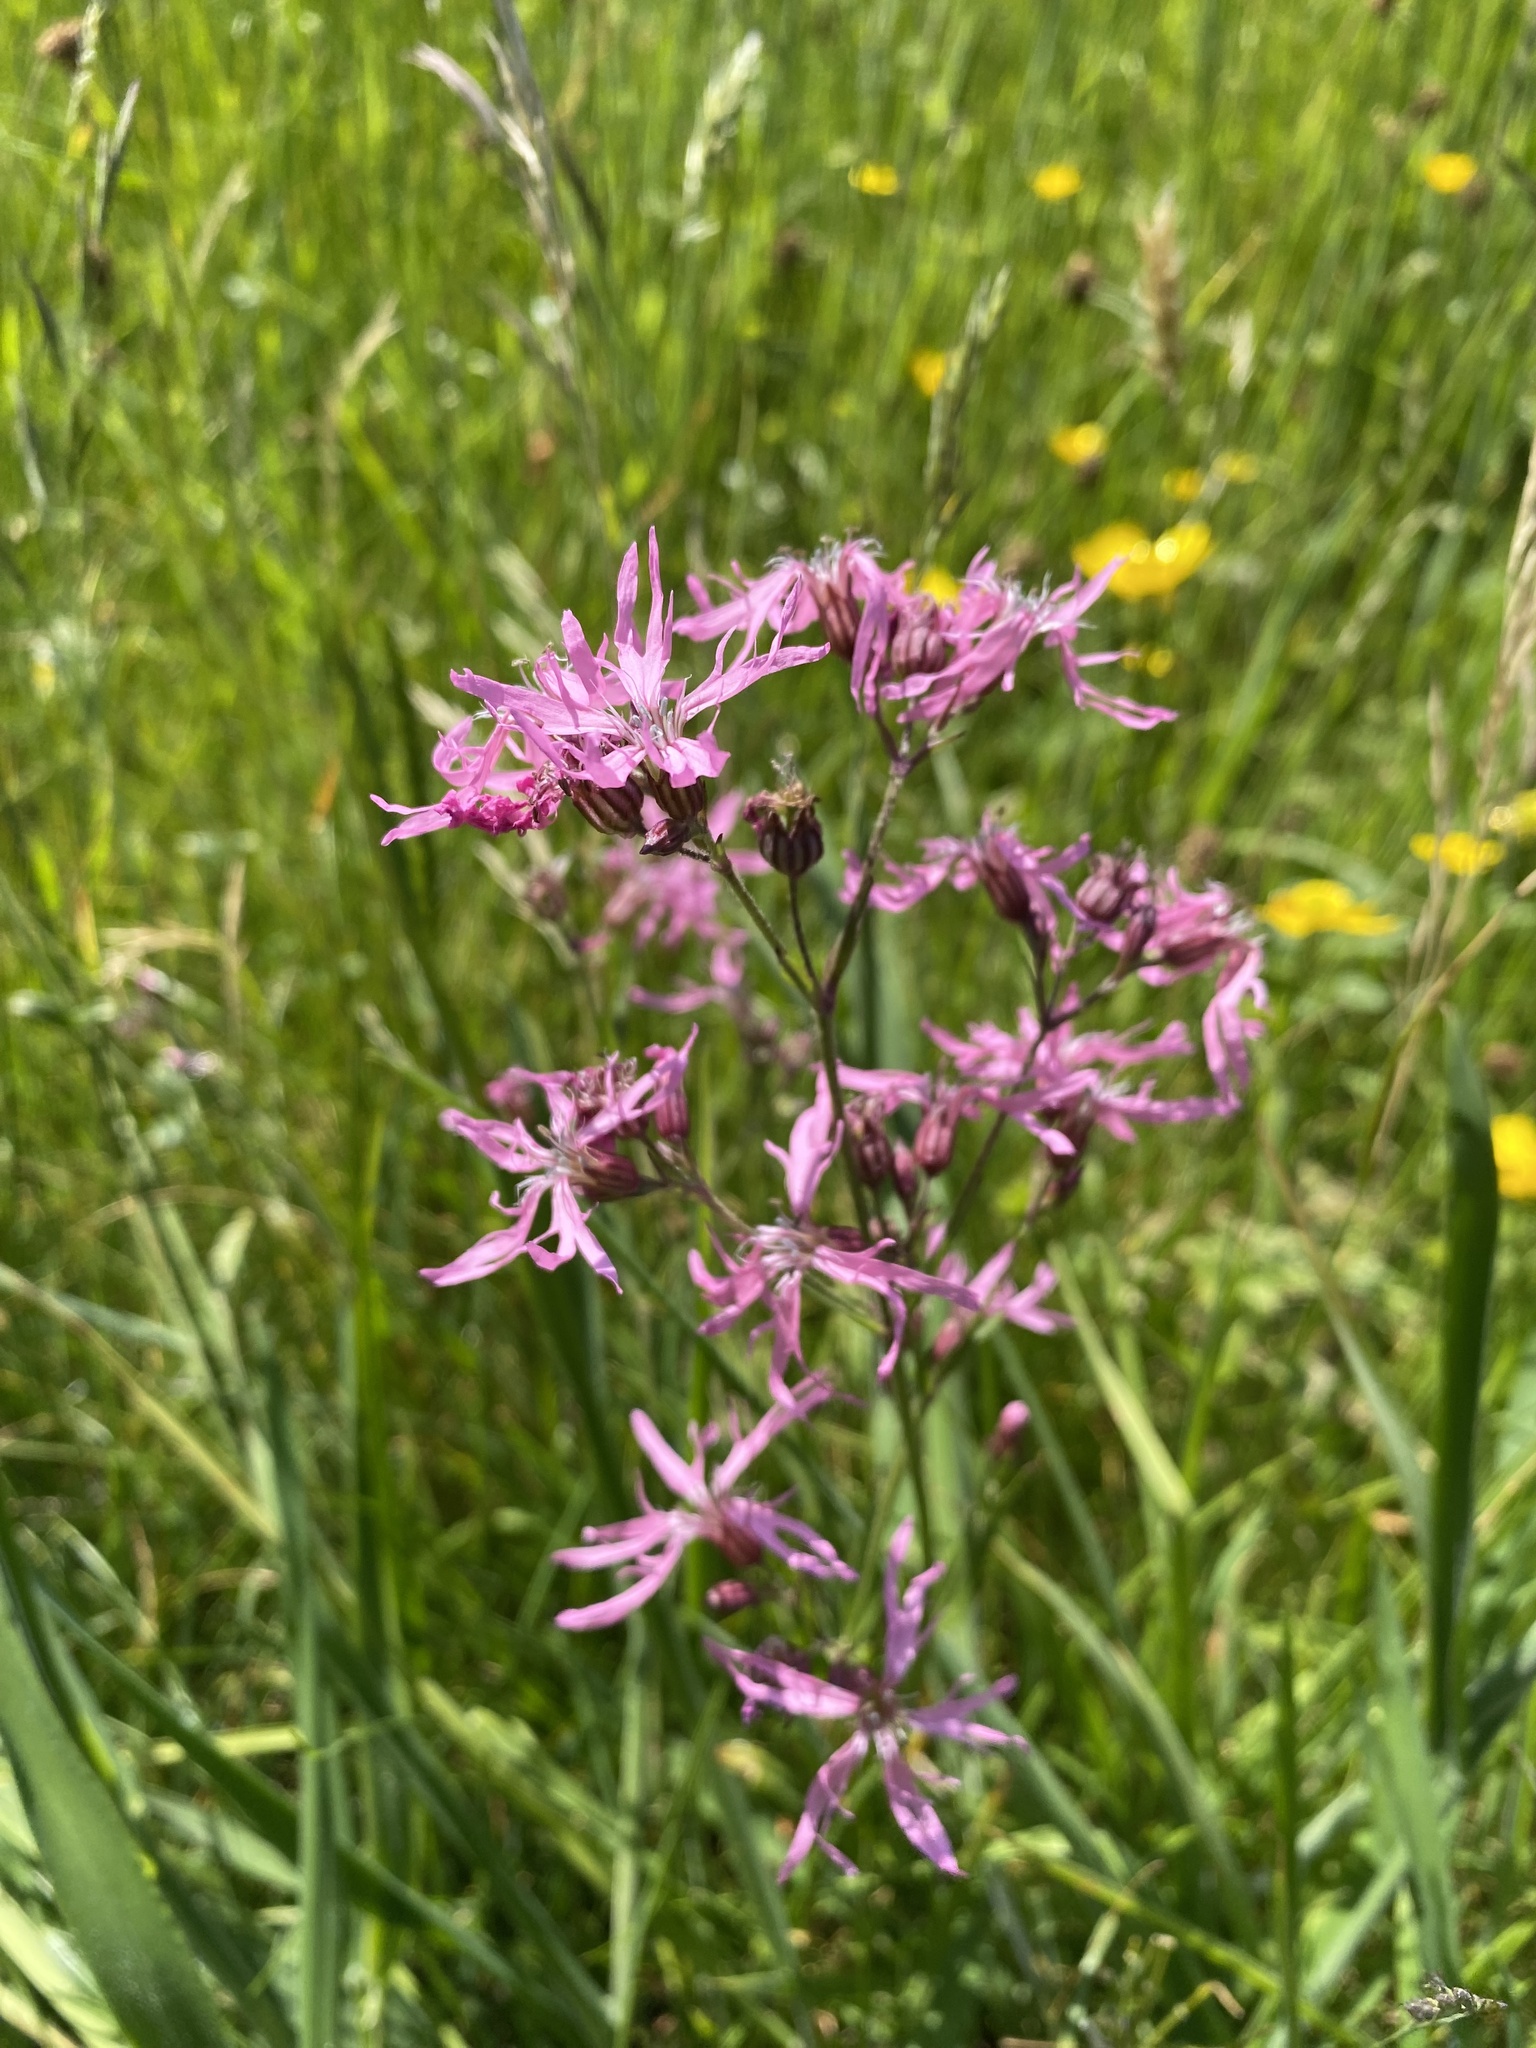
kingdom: Plantae
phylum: Tracheophyta
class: Magnoliopsida
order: Caryophyllales
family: Caryophyllaceae
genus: Silene
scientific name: Silene flos-cuculi
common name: Ragged-robin
